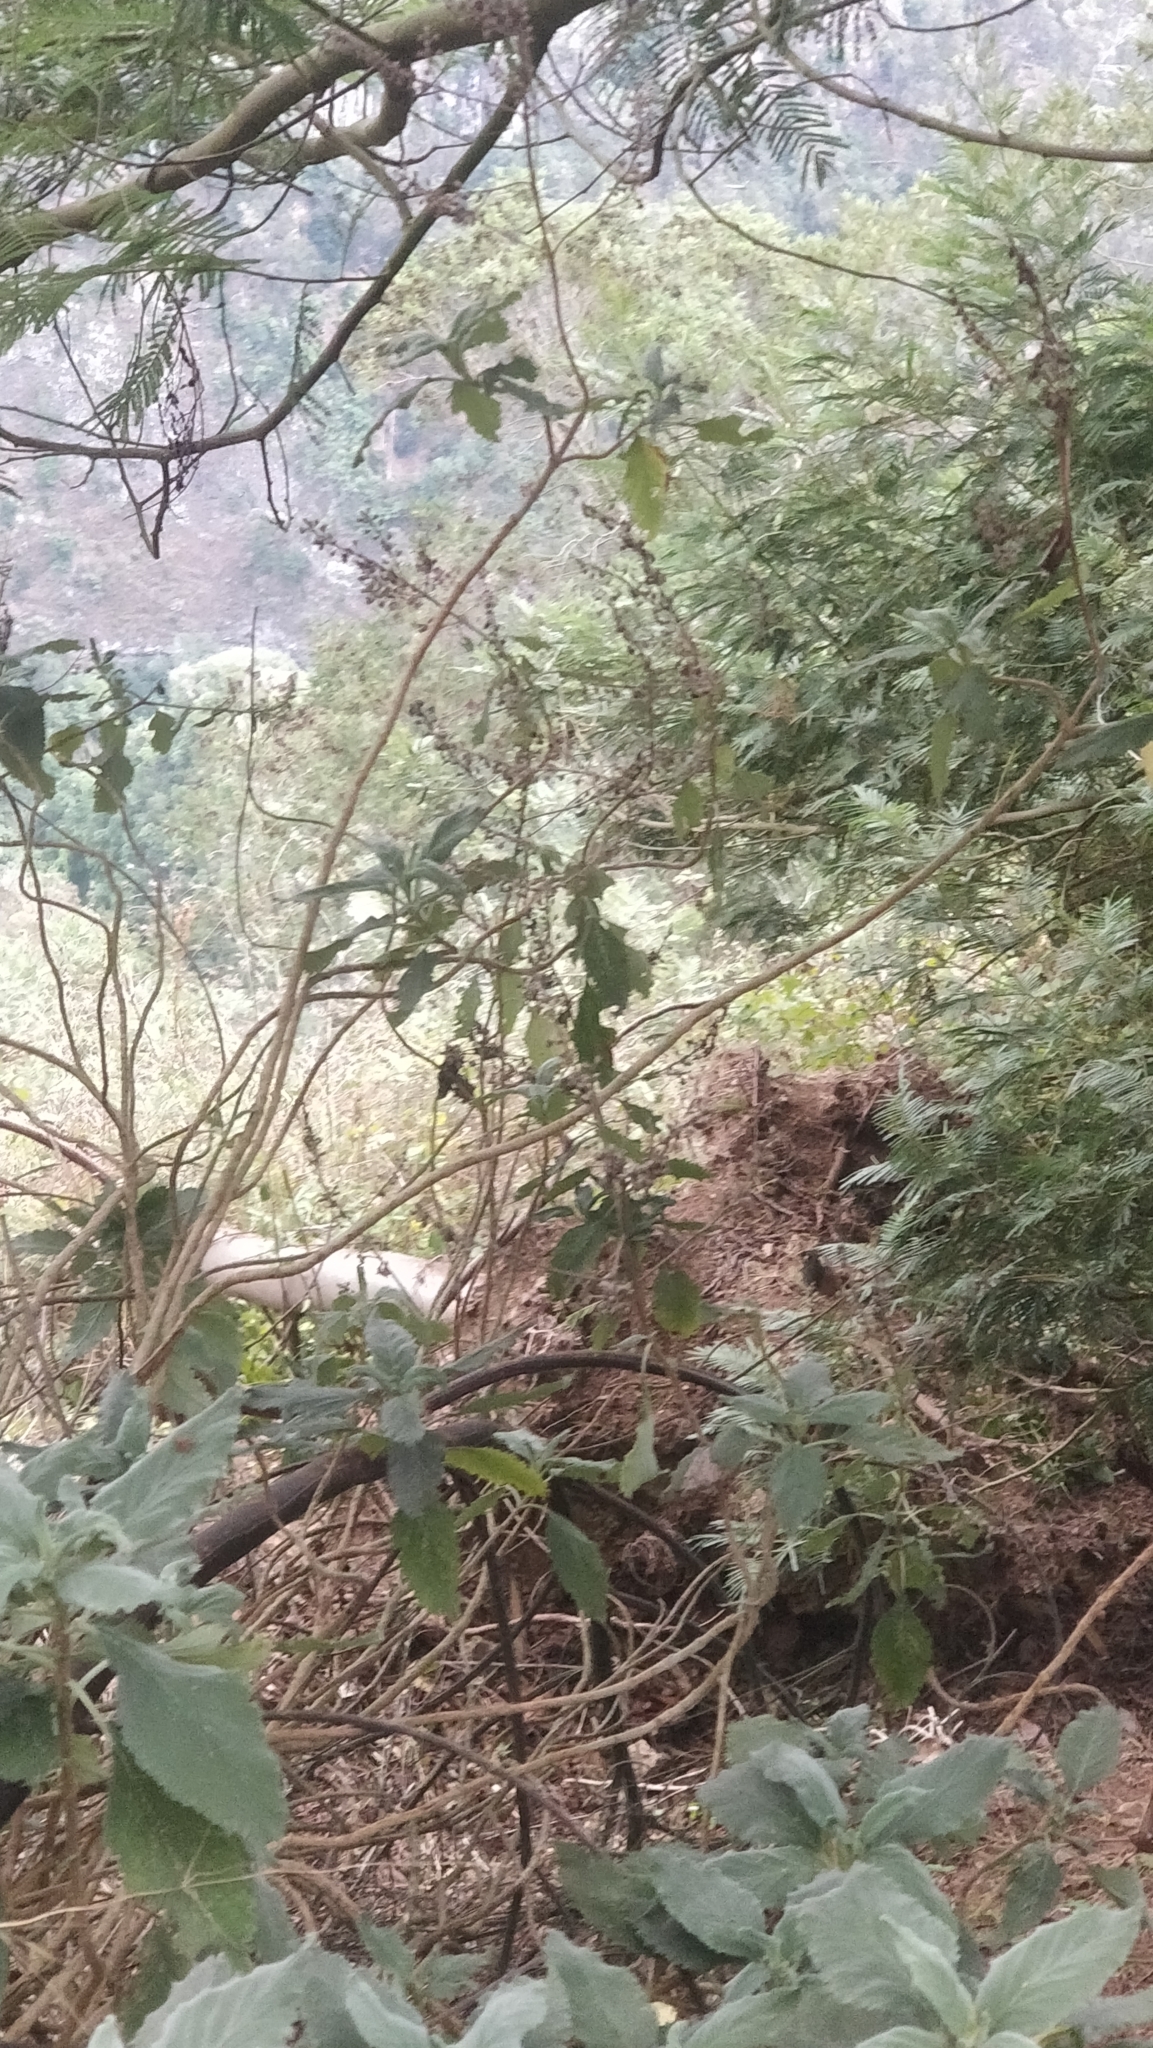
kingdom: Plantae
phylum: Tracheophyta
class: Magnoliopsida
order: Lamiales
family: Lamiaceae
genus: Teucrium
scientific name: Teucrium betonicum
